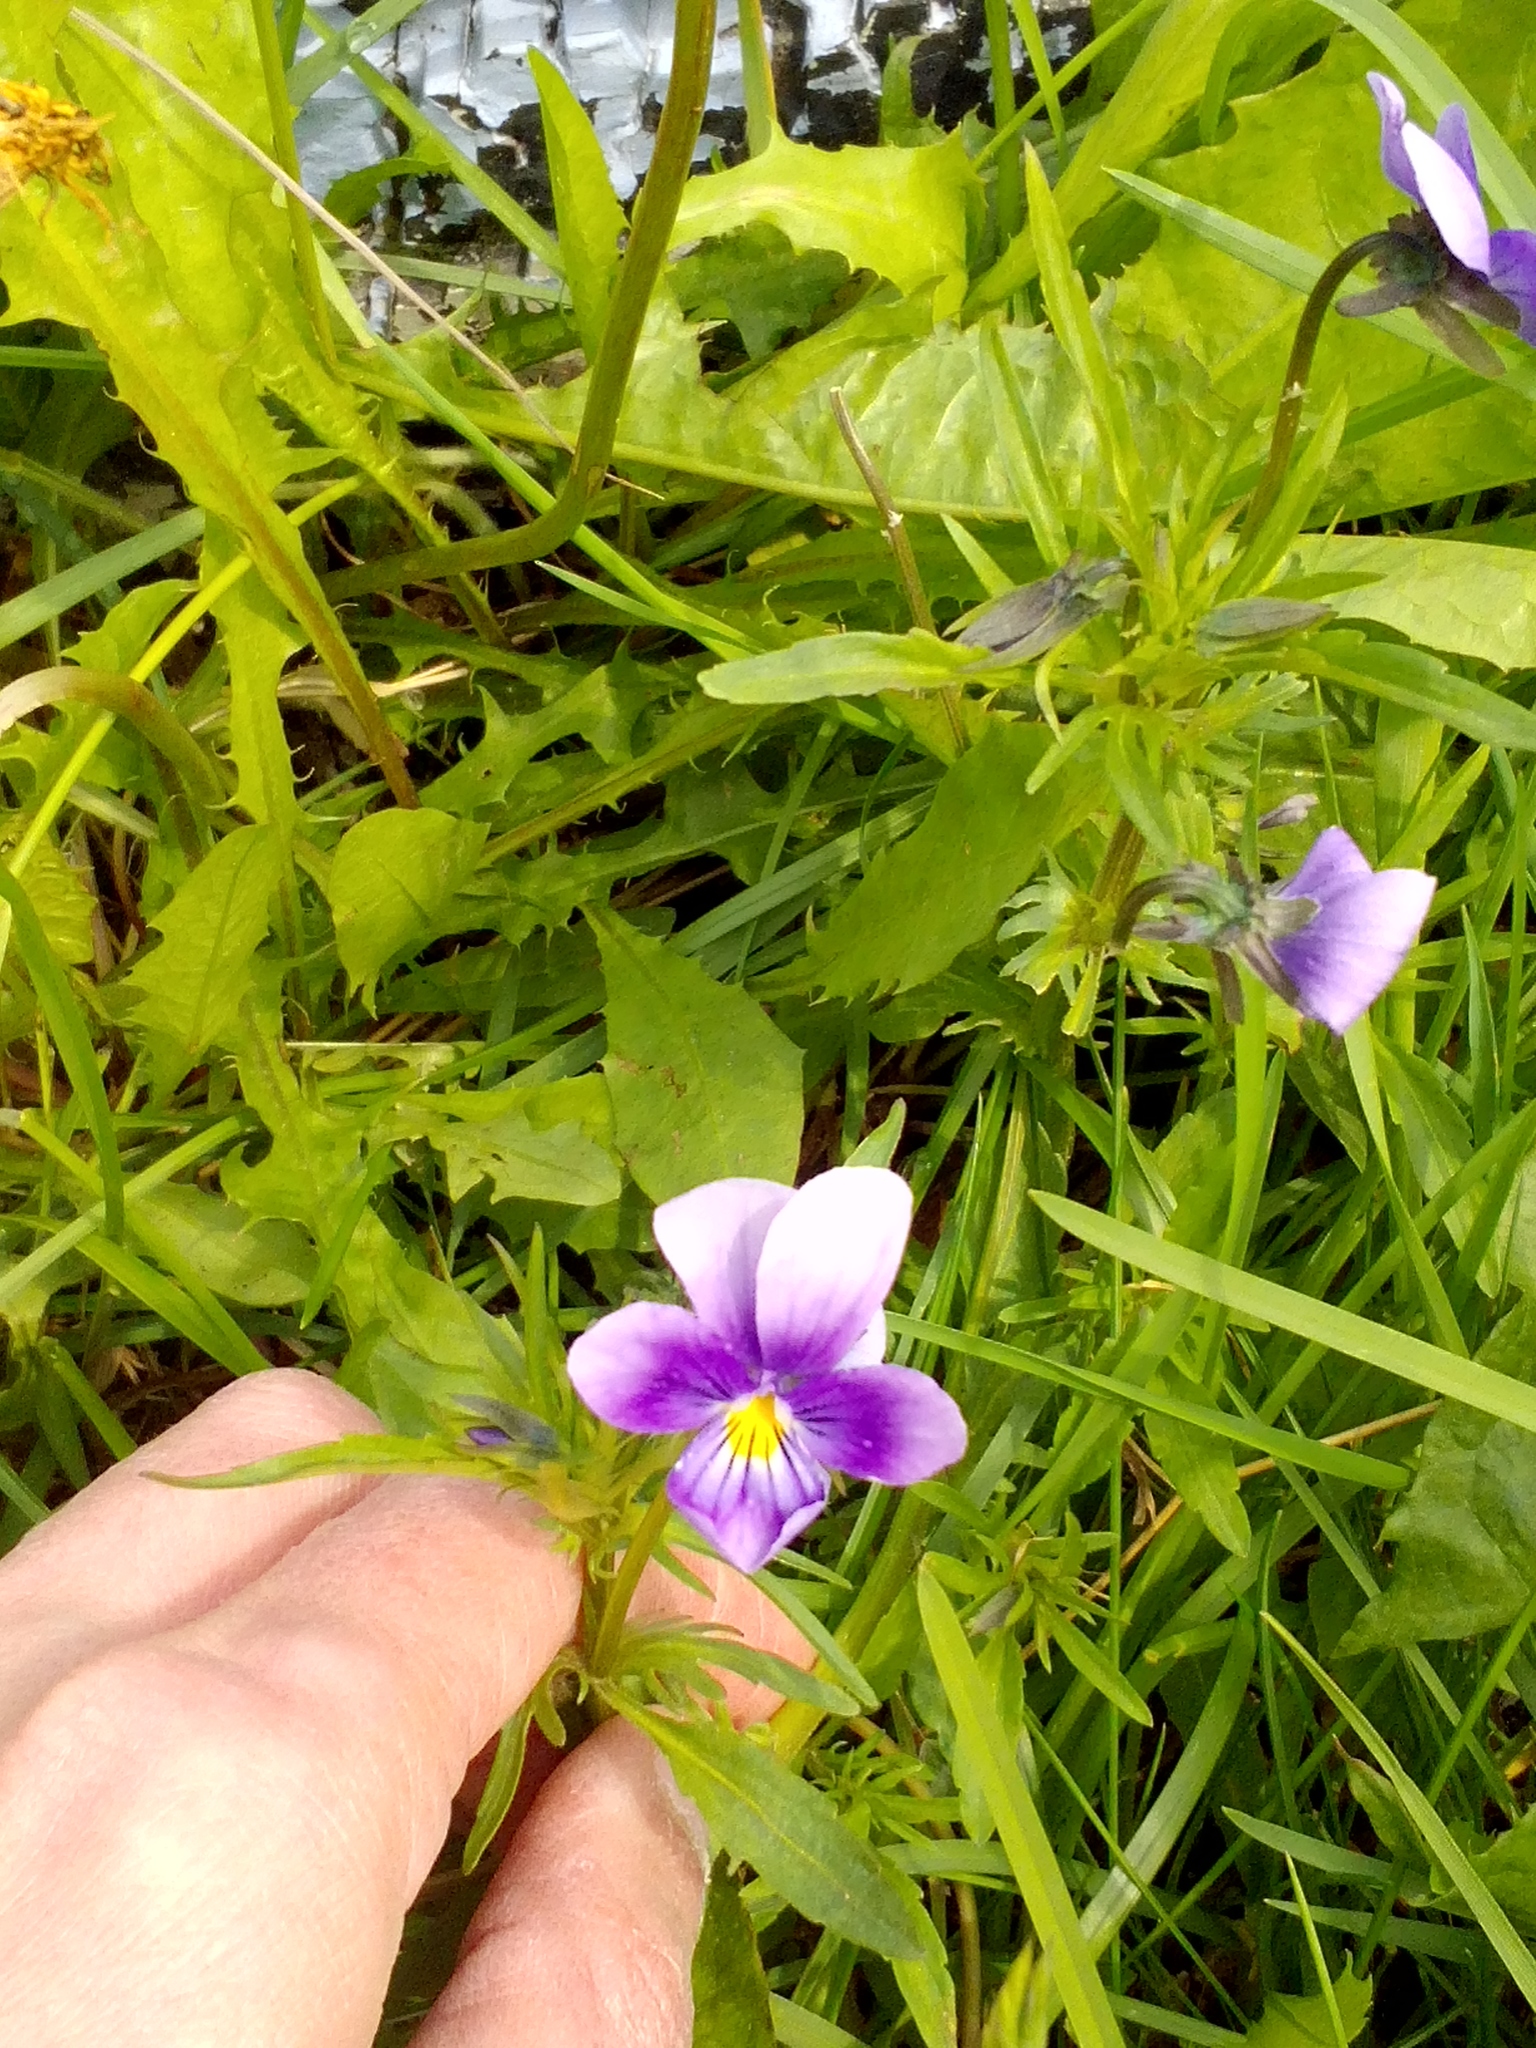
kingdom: Plantae
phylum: Tracheophyta
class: Magnoliopsida
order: Malpighiales
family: Violaceae
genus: Viola
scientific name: Viola tricolor
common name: Pansy
